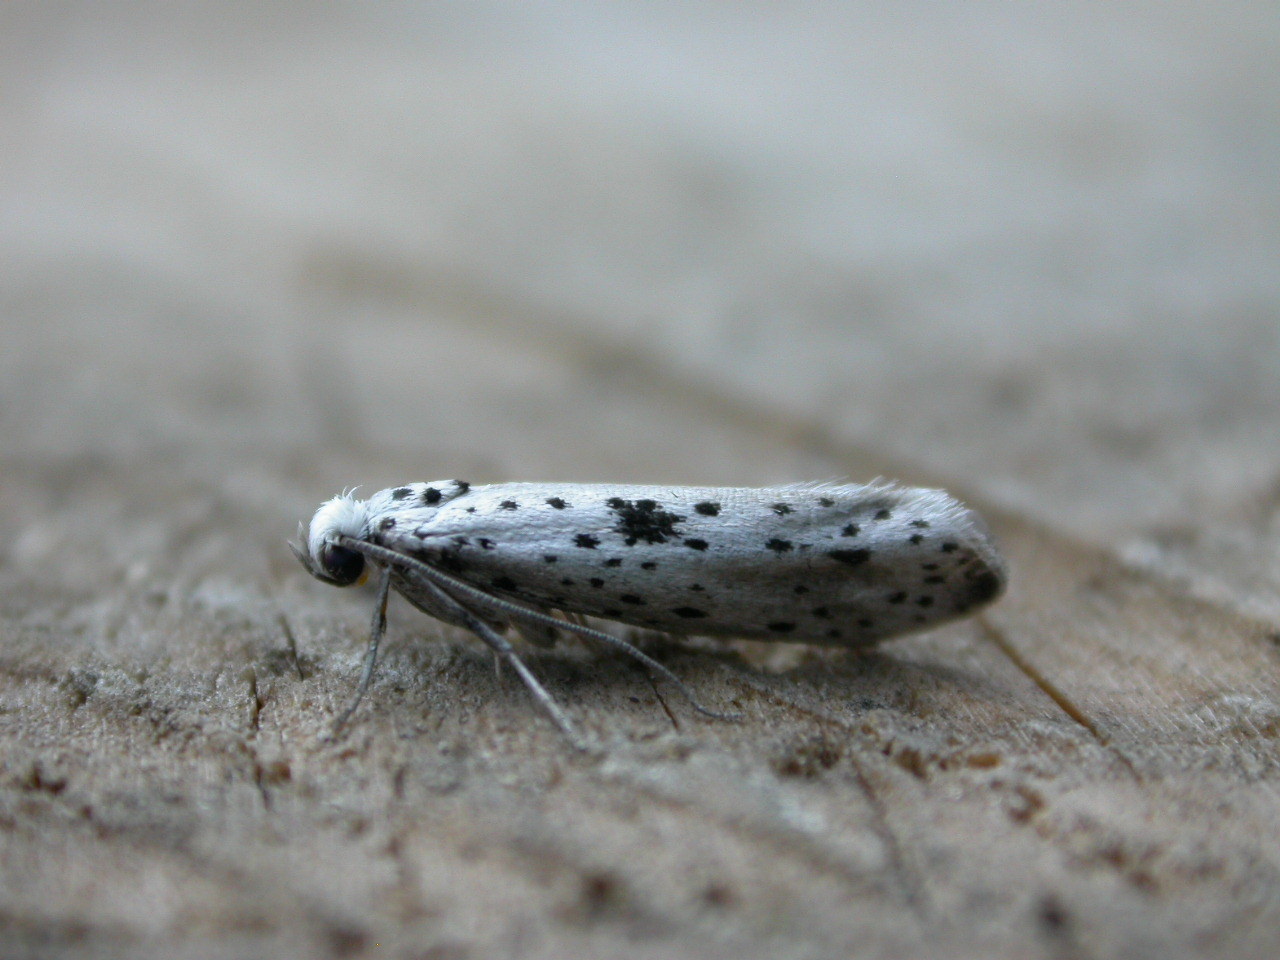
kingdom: Animalia
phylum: Arthropoda
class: Insecta
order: Lepidoptera
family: Yponomeutidae
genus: Yponomeuta
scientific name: Yponomeuta plumbella
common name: Black-tipped ermine
